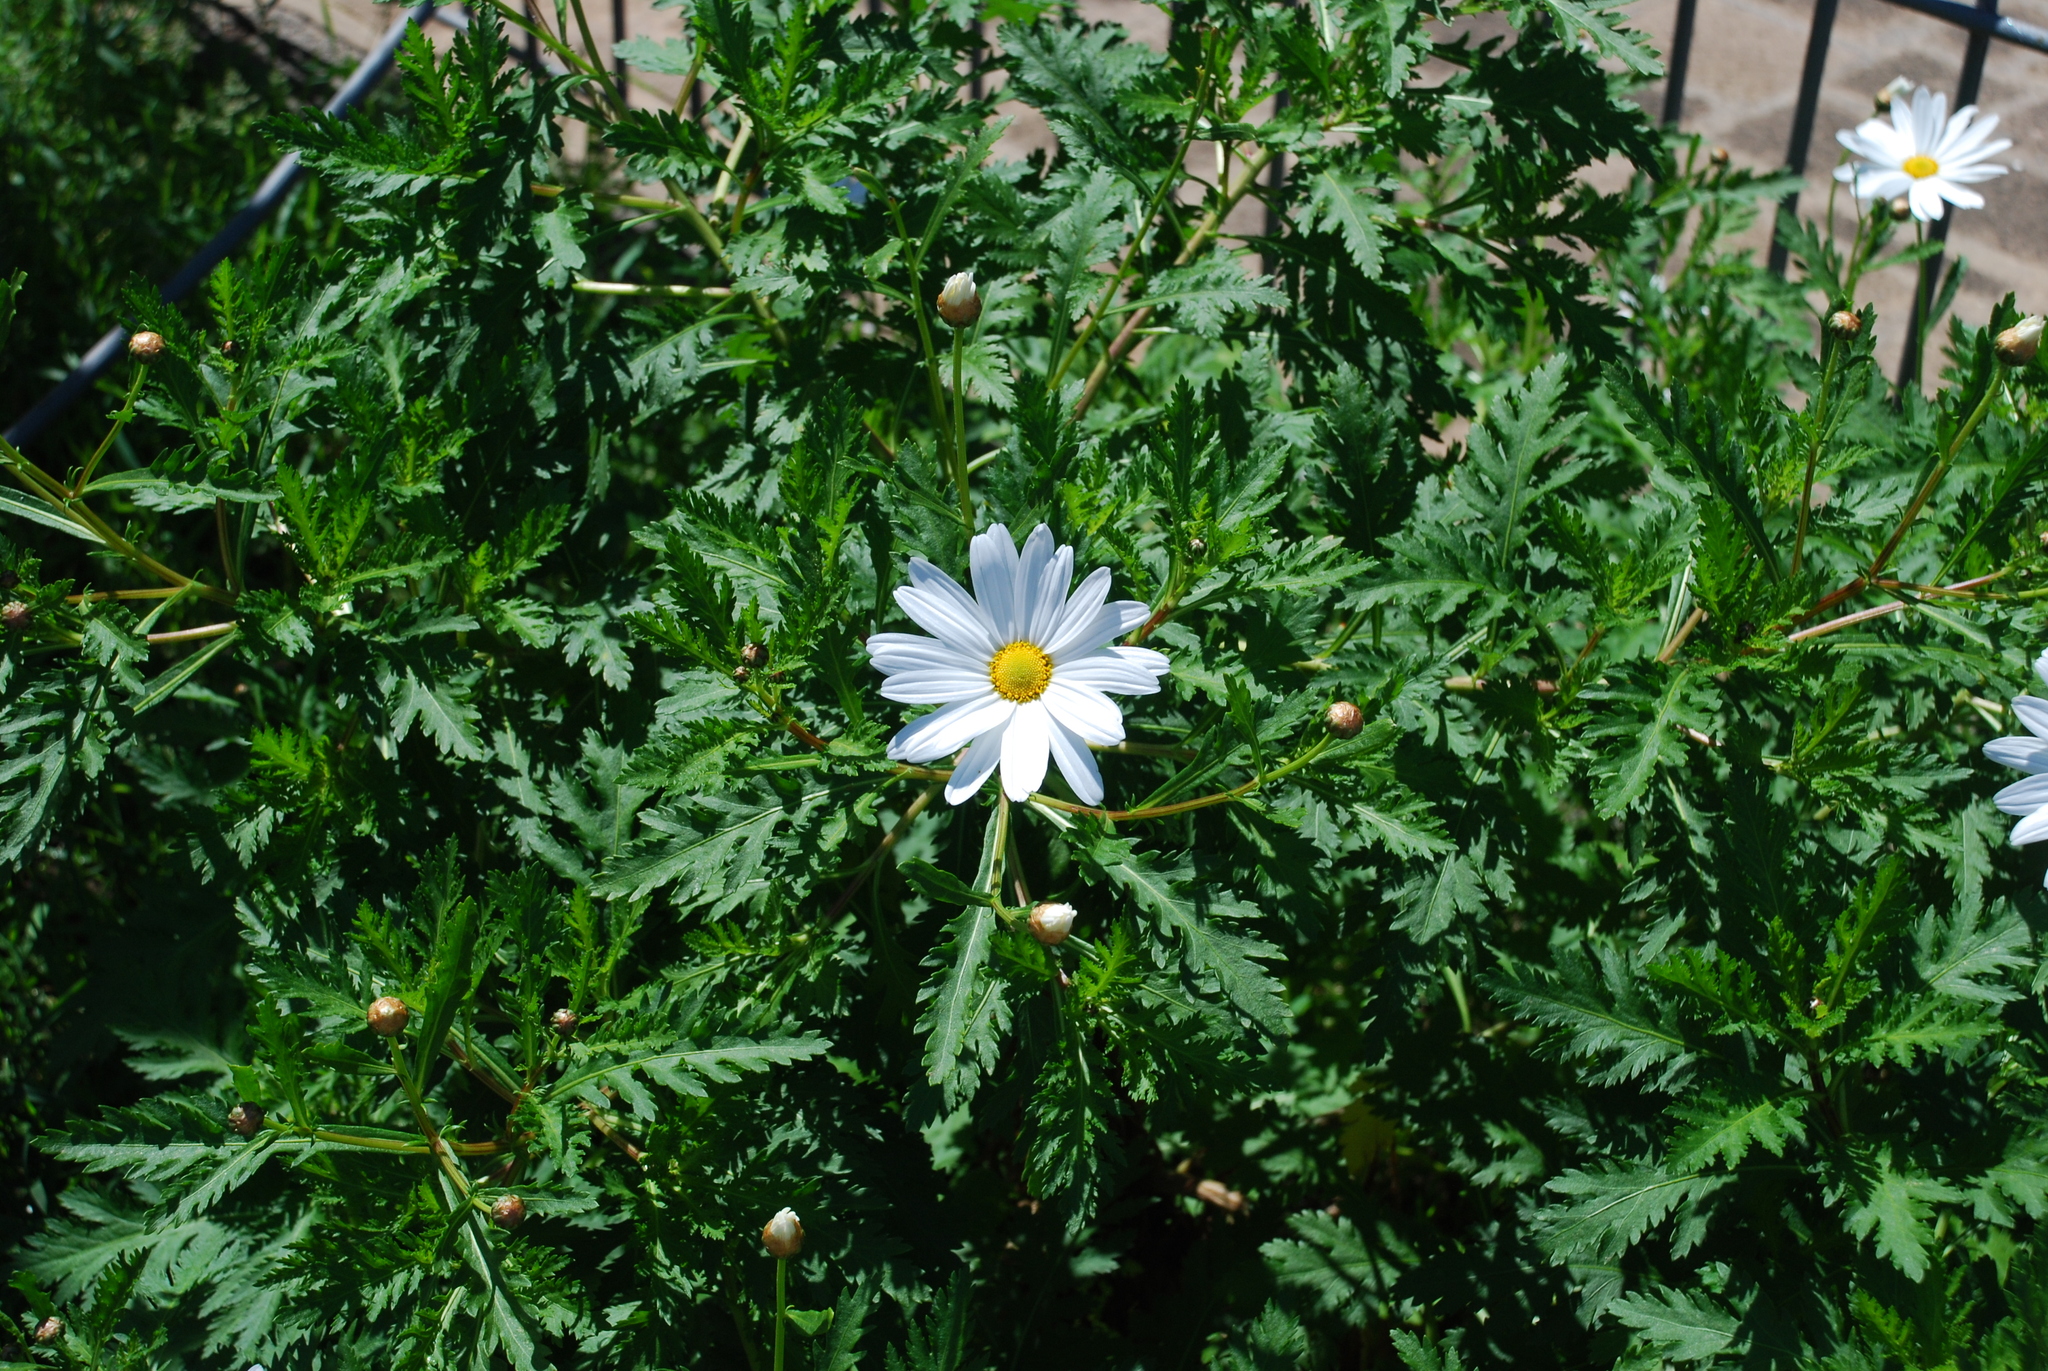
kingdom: Plantae
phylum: Tracheophyta
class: Magnoliopsida
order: Asterales
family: Asteraceae
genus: Argyranthemum
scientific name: Argyranthemum broussonetii
